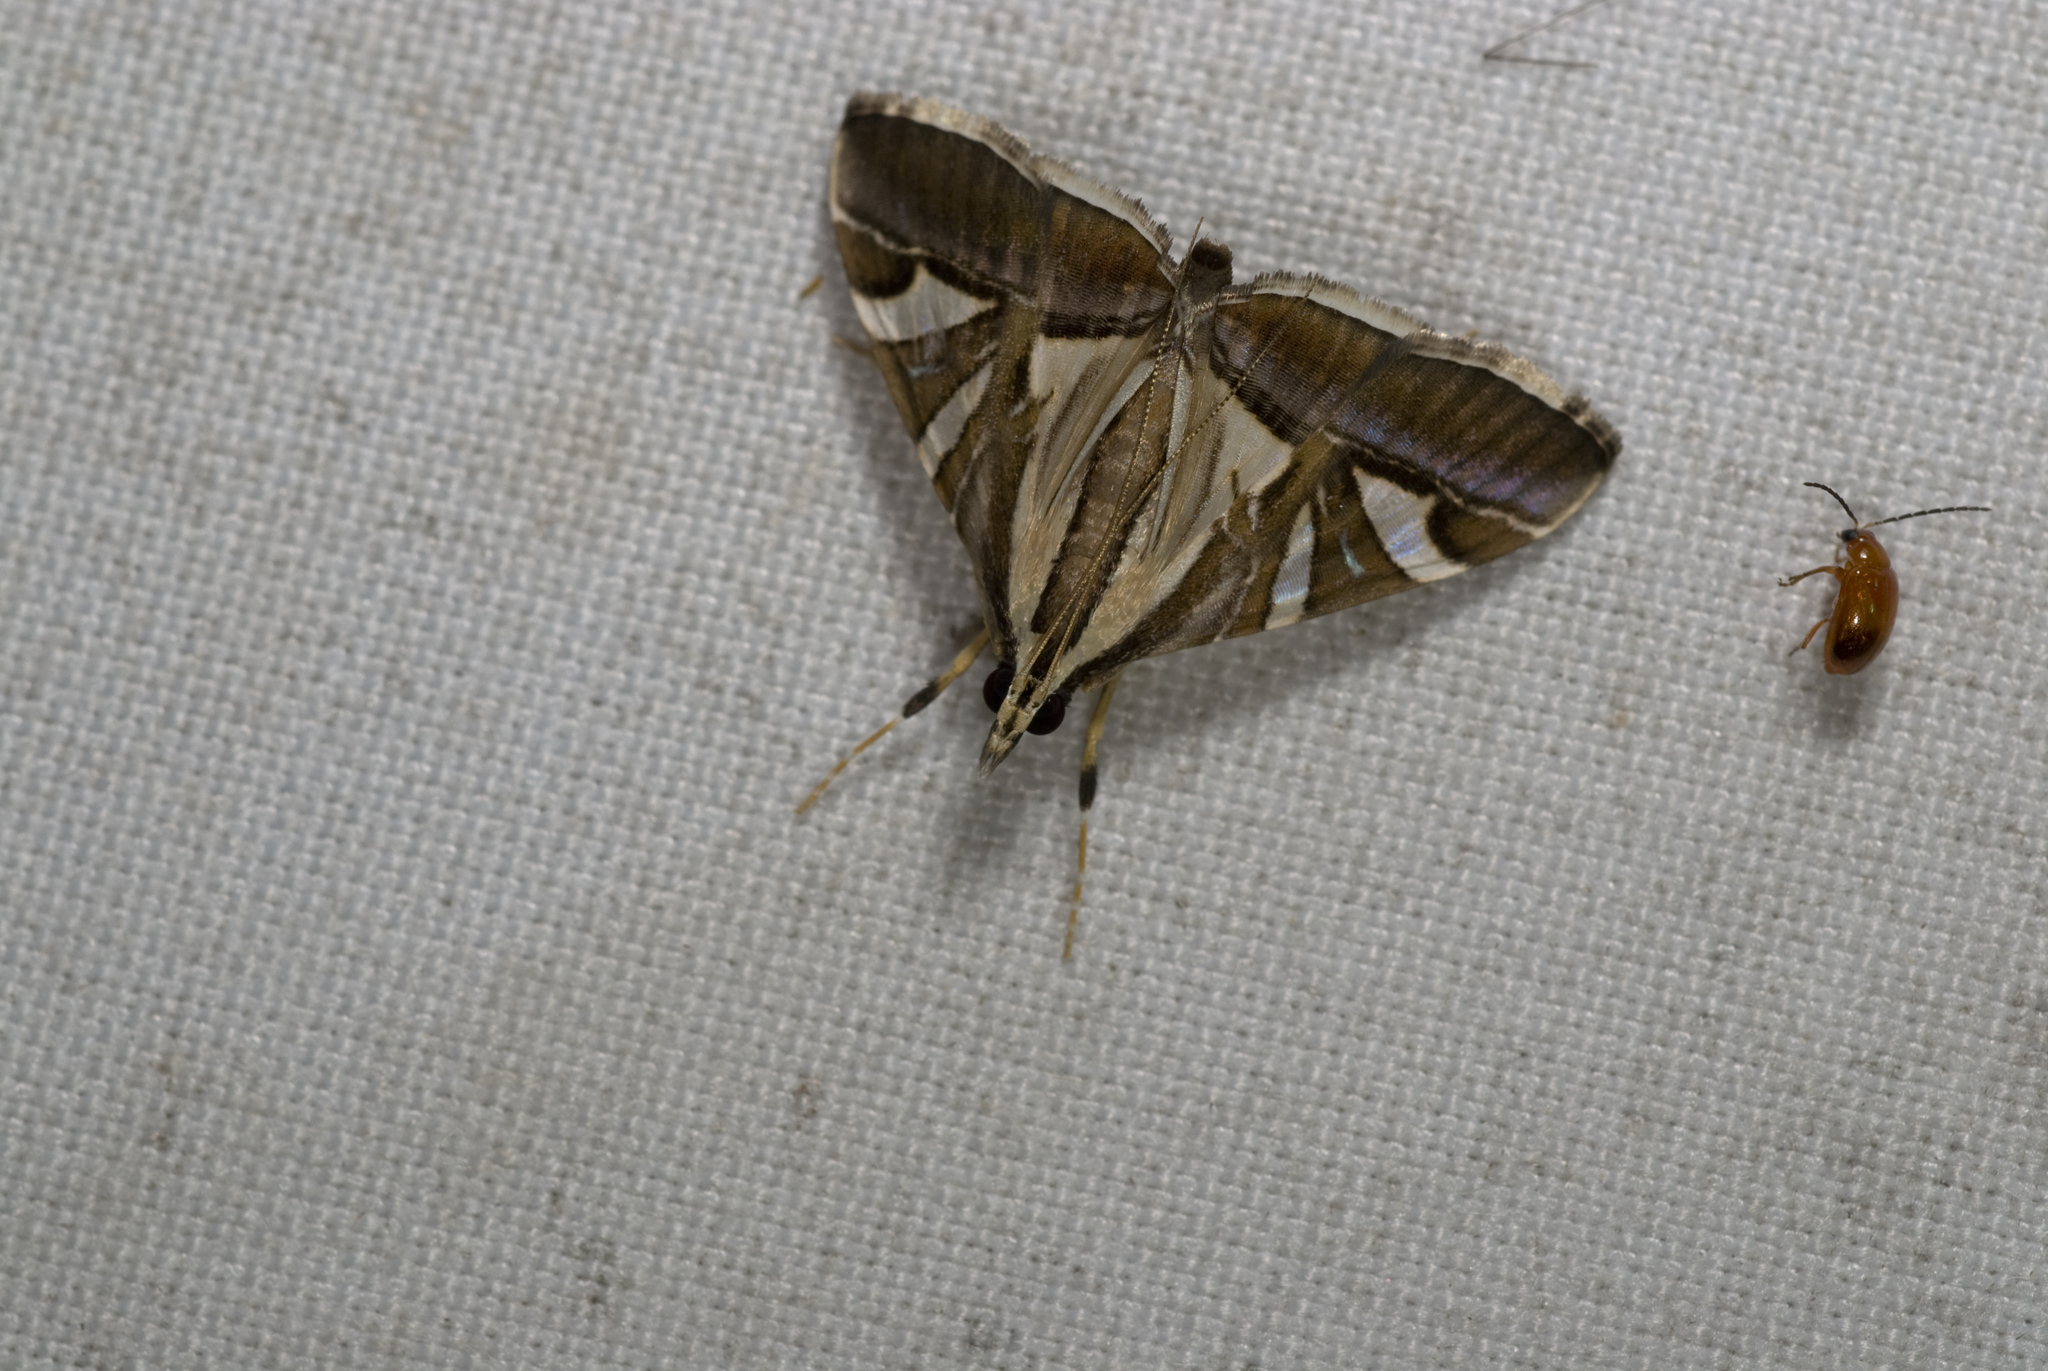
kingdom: Animalia
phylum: Arthropoda
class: Insecta
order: Lepidoptera
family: Crambidae
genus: Agrioglypta
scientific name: Agrioglypta itysalis
